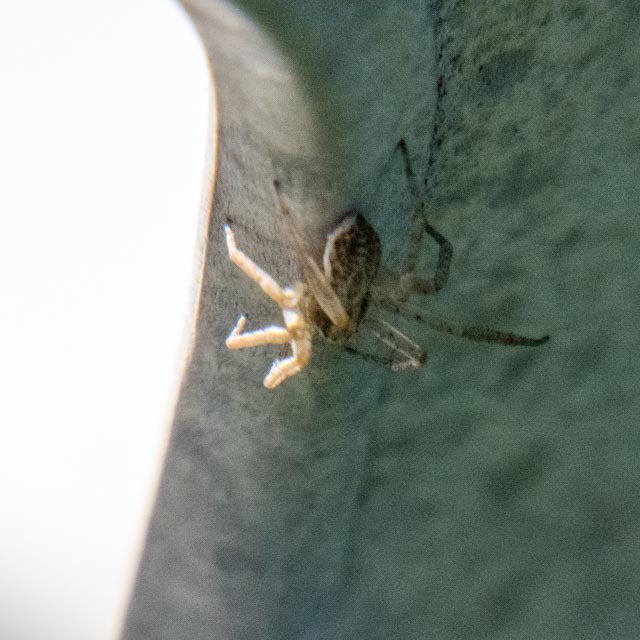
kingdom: Animalia
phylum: Arthropoda
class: Arachnida
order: Araneae
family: Philodromidae
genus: Philodromus
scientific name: Philodromus dispar
